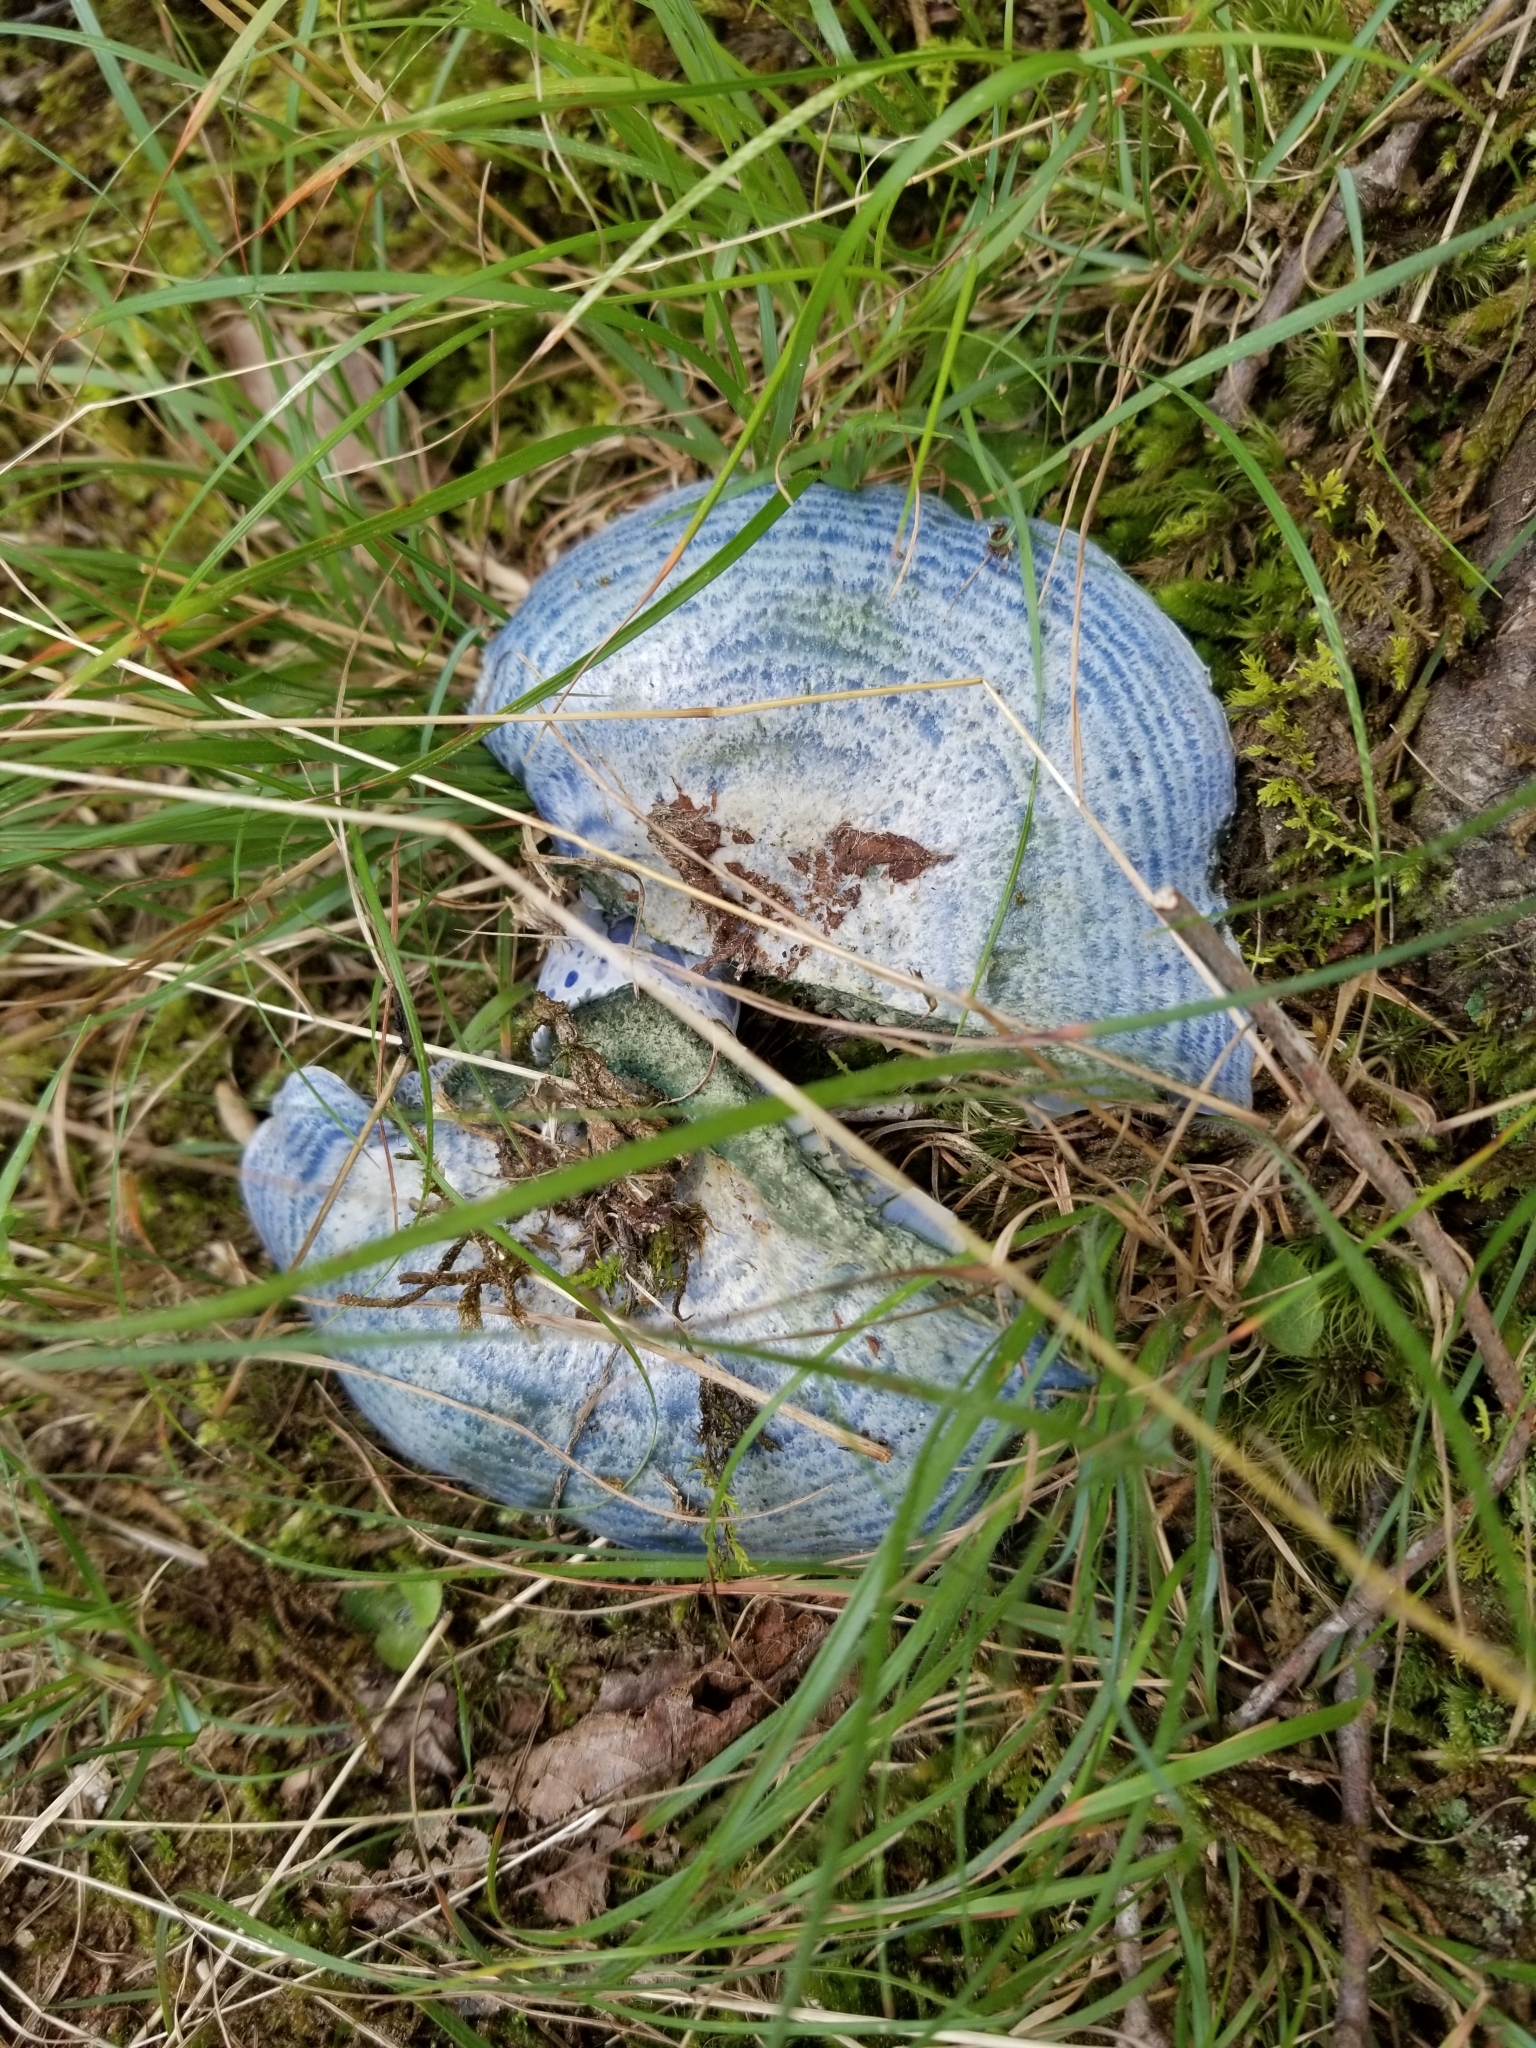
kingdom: Fungi
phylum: Basidiomycota
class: Agaricomycetes
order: Russulales
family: Russulaceae
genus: Lactarius
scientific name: Lactarius indigo
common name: Indigo milk cap
